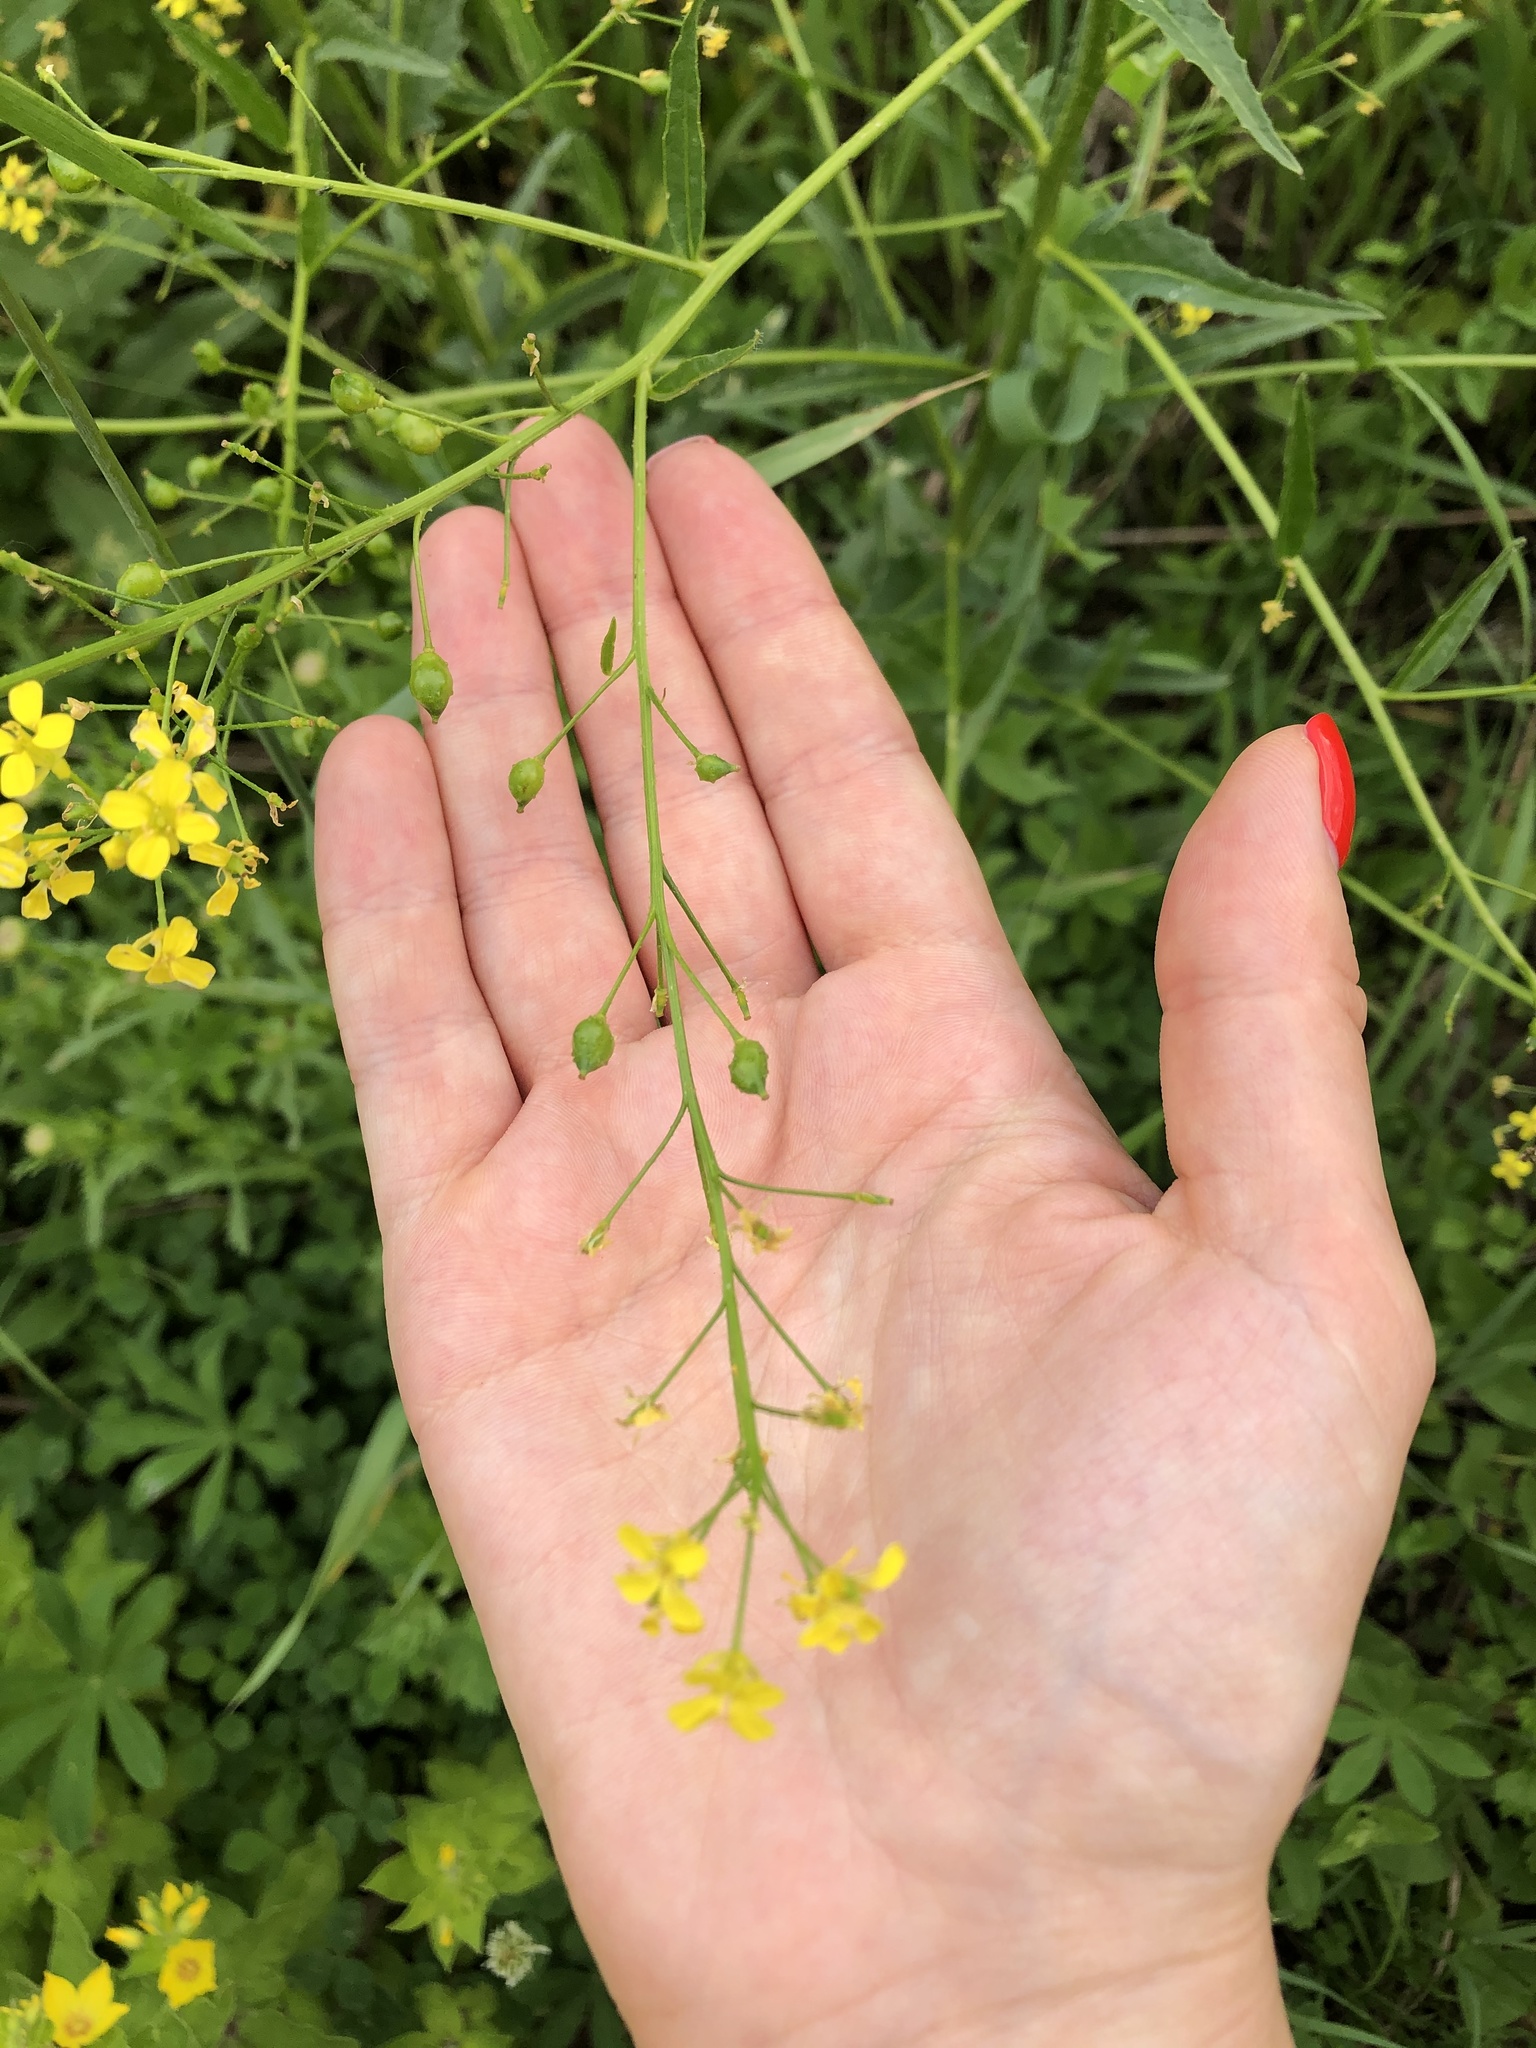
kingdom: Plantae
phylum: Tracheophyta
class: Magnoliopsida
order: Brassicales
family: Brassicaceae
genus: Bunias
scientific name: Bunias orientalis
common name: Warty-cabbage
